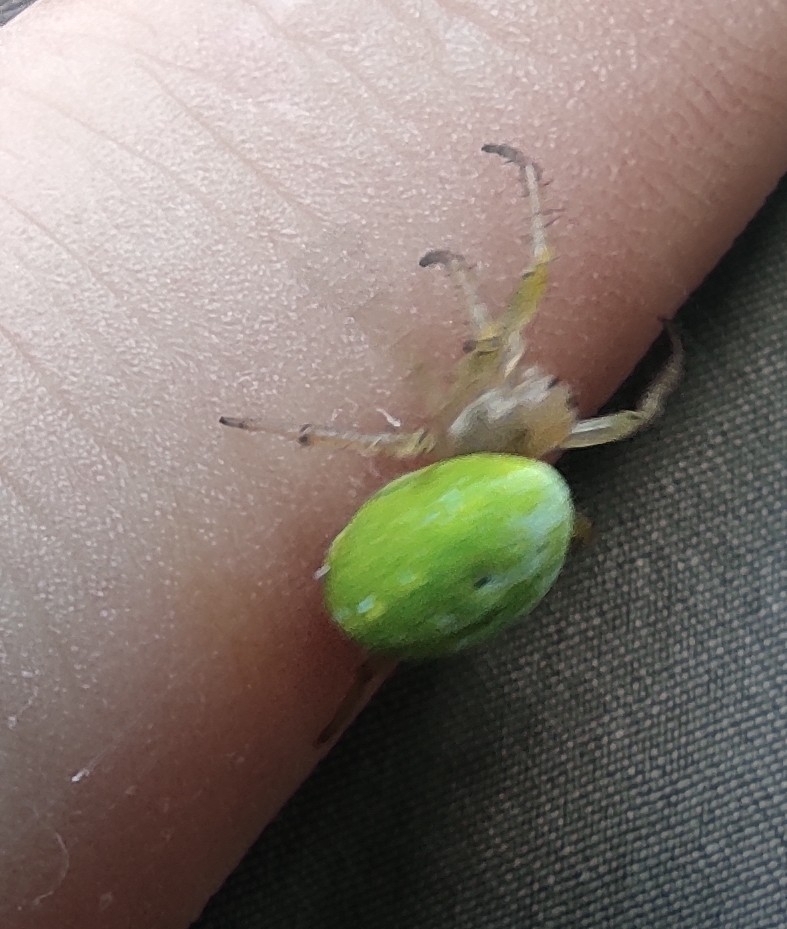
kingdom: Animalia
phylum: Arthropoda
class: Arachnida
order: Araneae
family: Araneidae
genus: Araniella
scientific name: Araniella
